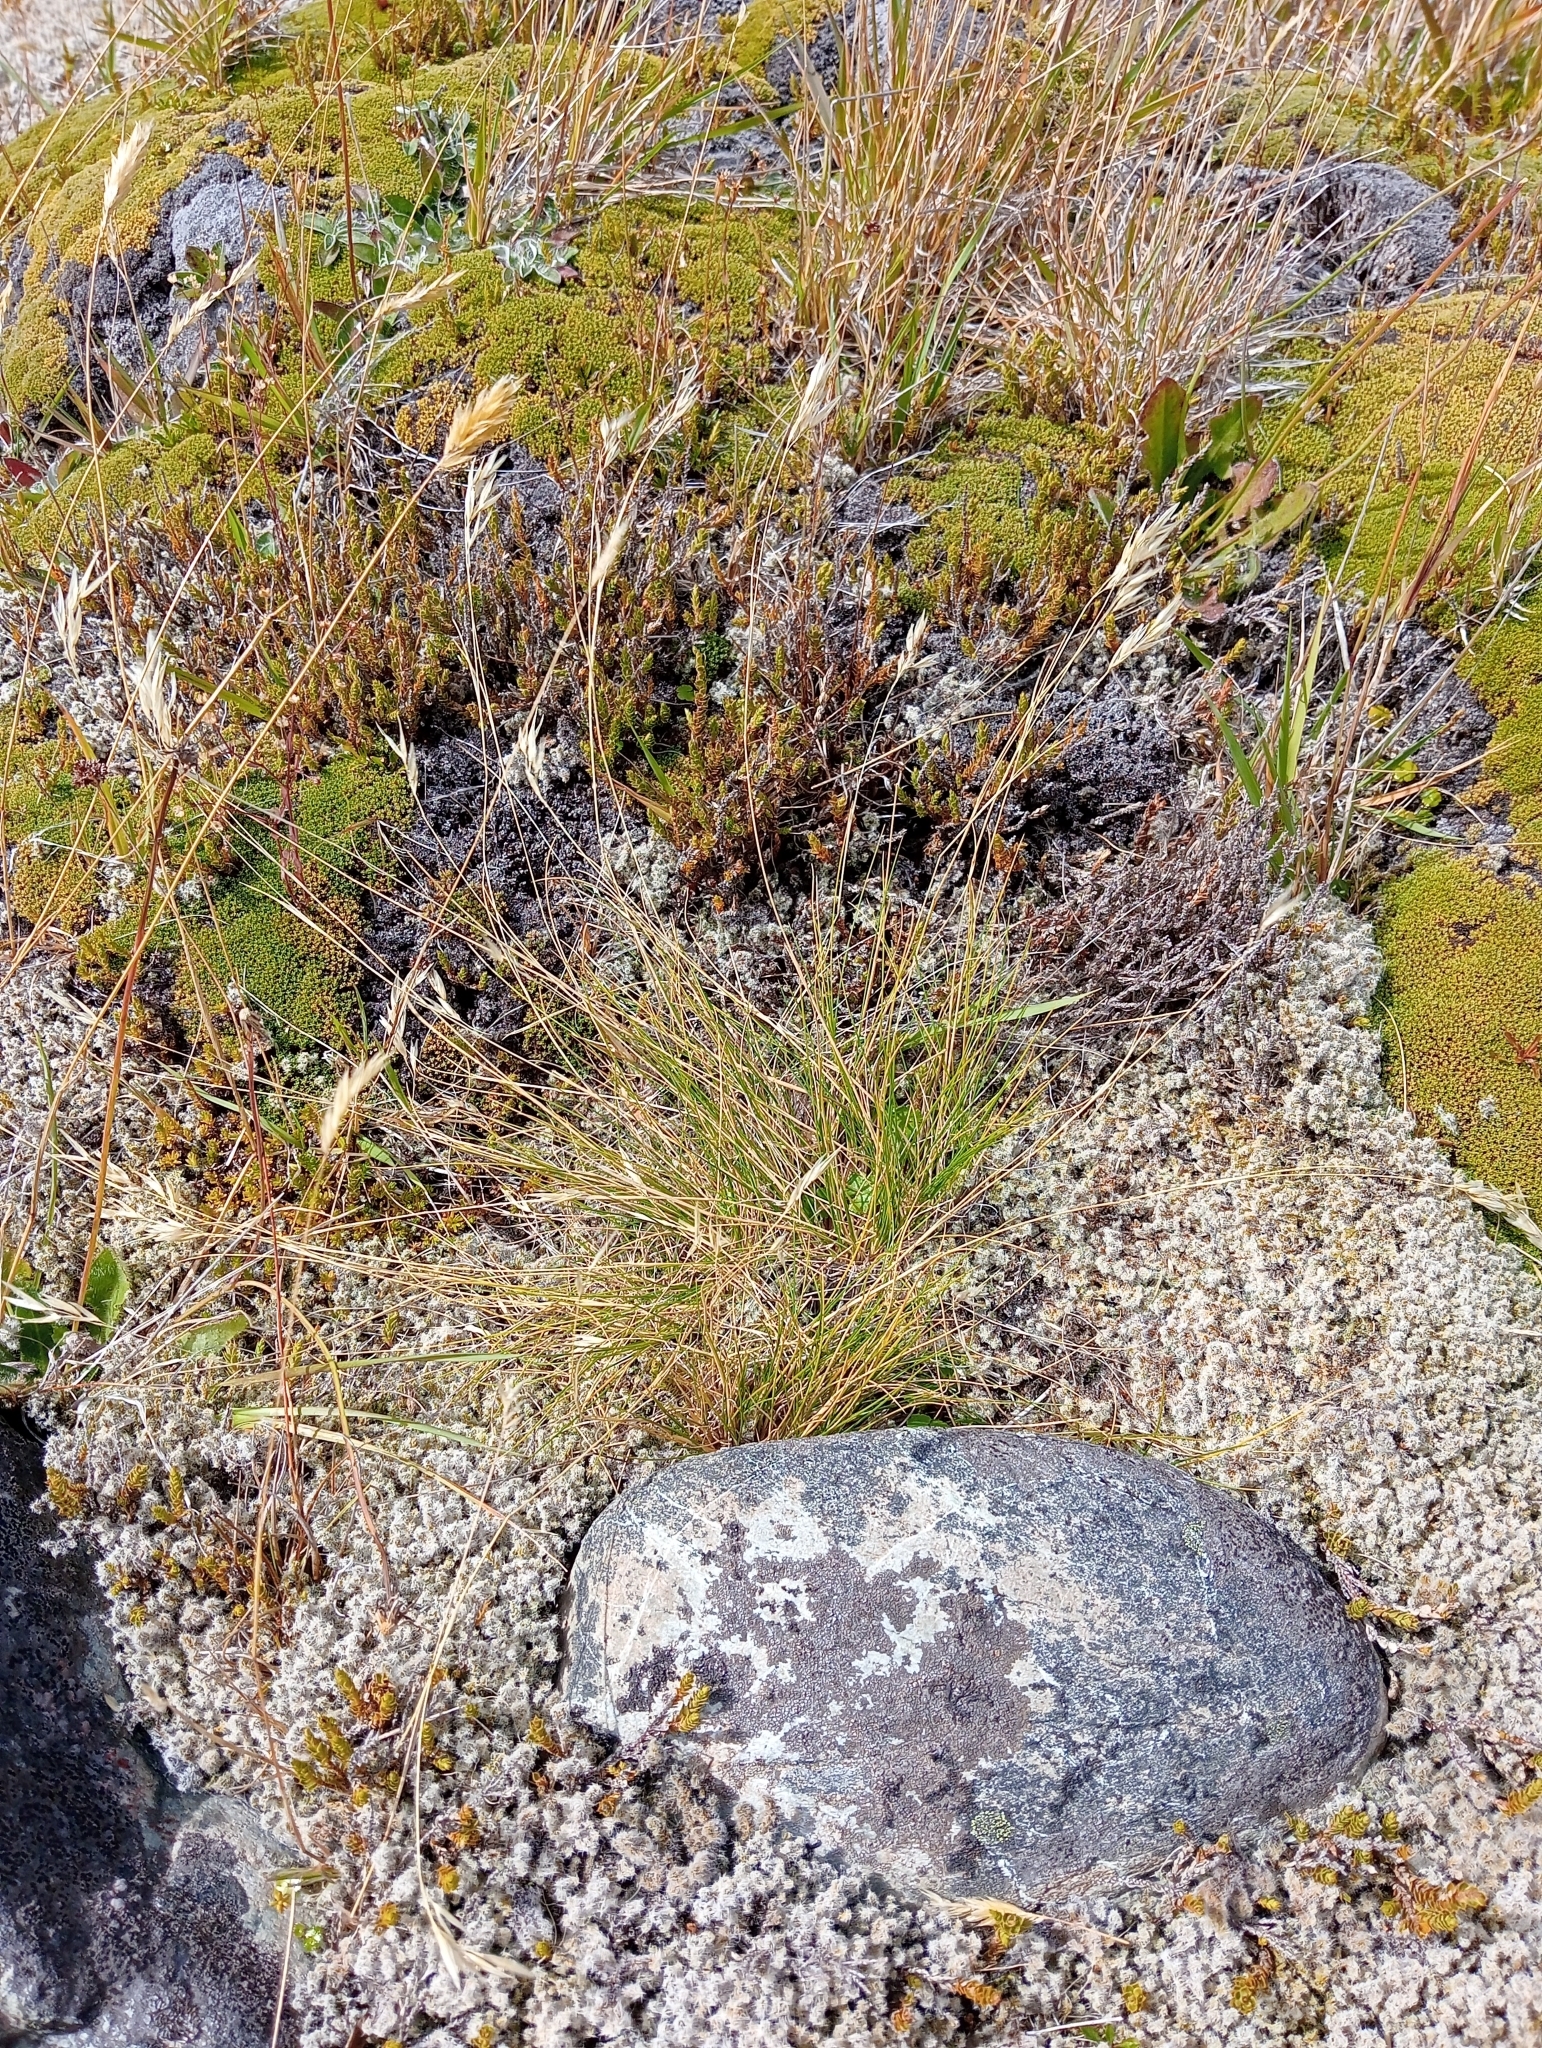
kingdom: Plantae
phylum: Tracheophyta
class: Liliopsida
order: Poales
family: Poaceae
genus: Rytidosperma
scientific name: Rytidosperma setifolium
